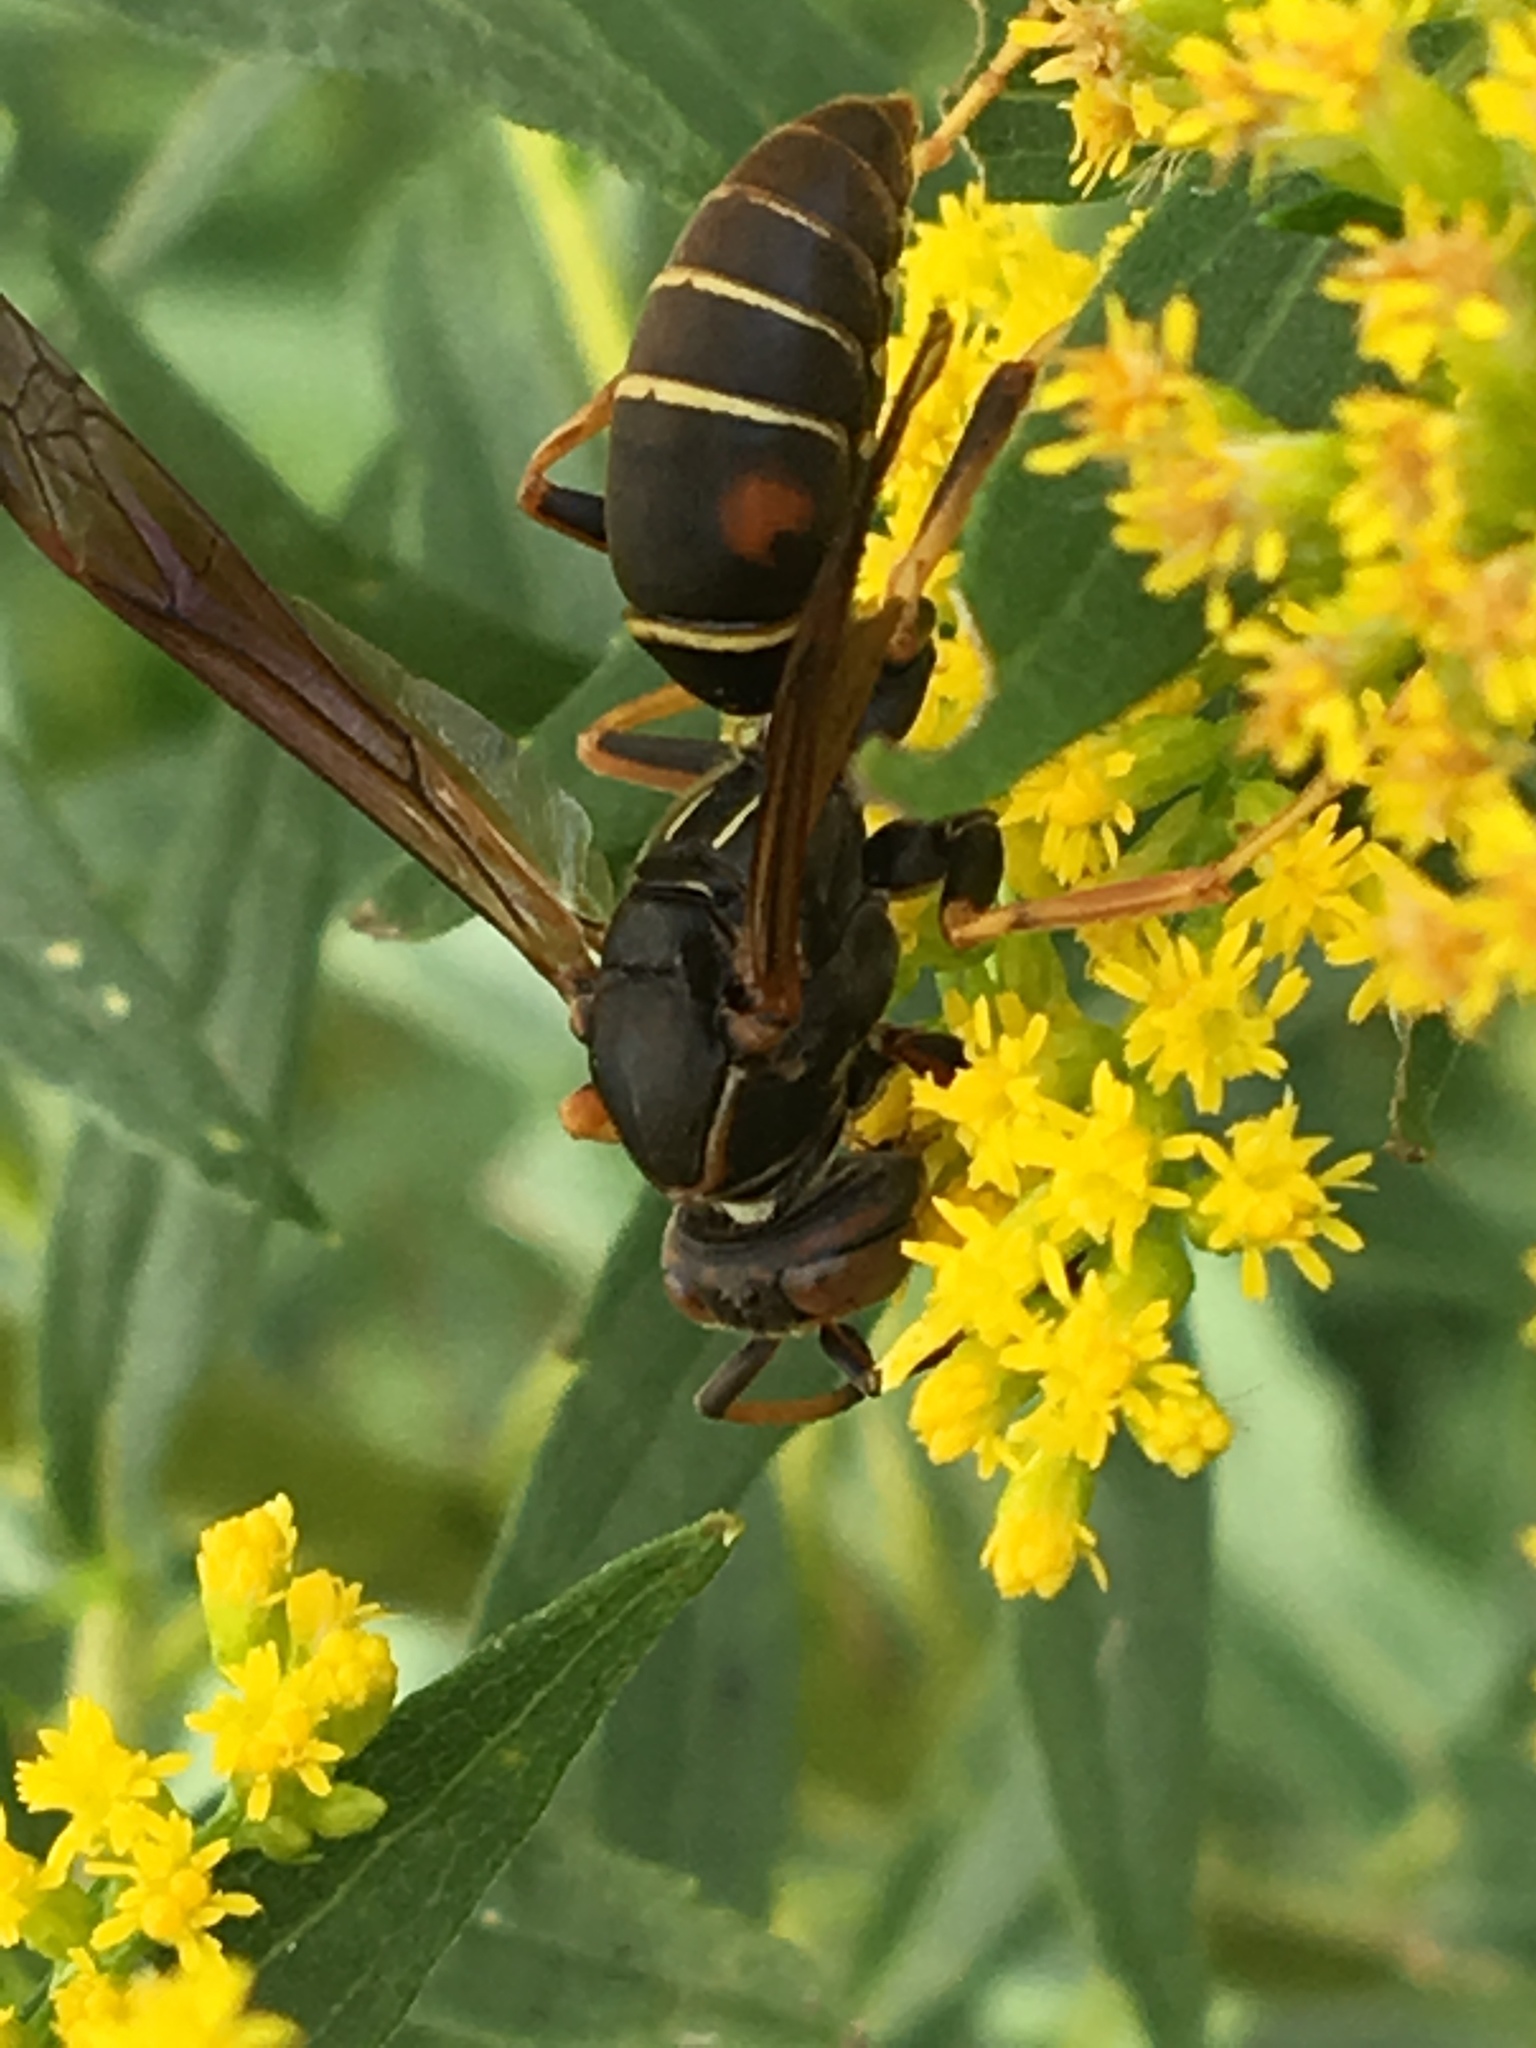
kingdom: Animalia
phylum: Arthropoda
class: Insecta
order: Hymenoptera
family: Eumenidae
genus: Polistes
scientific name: Polistes fuscatus
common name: Dark paper wasp
